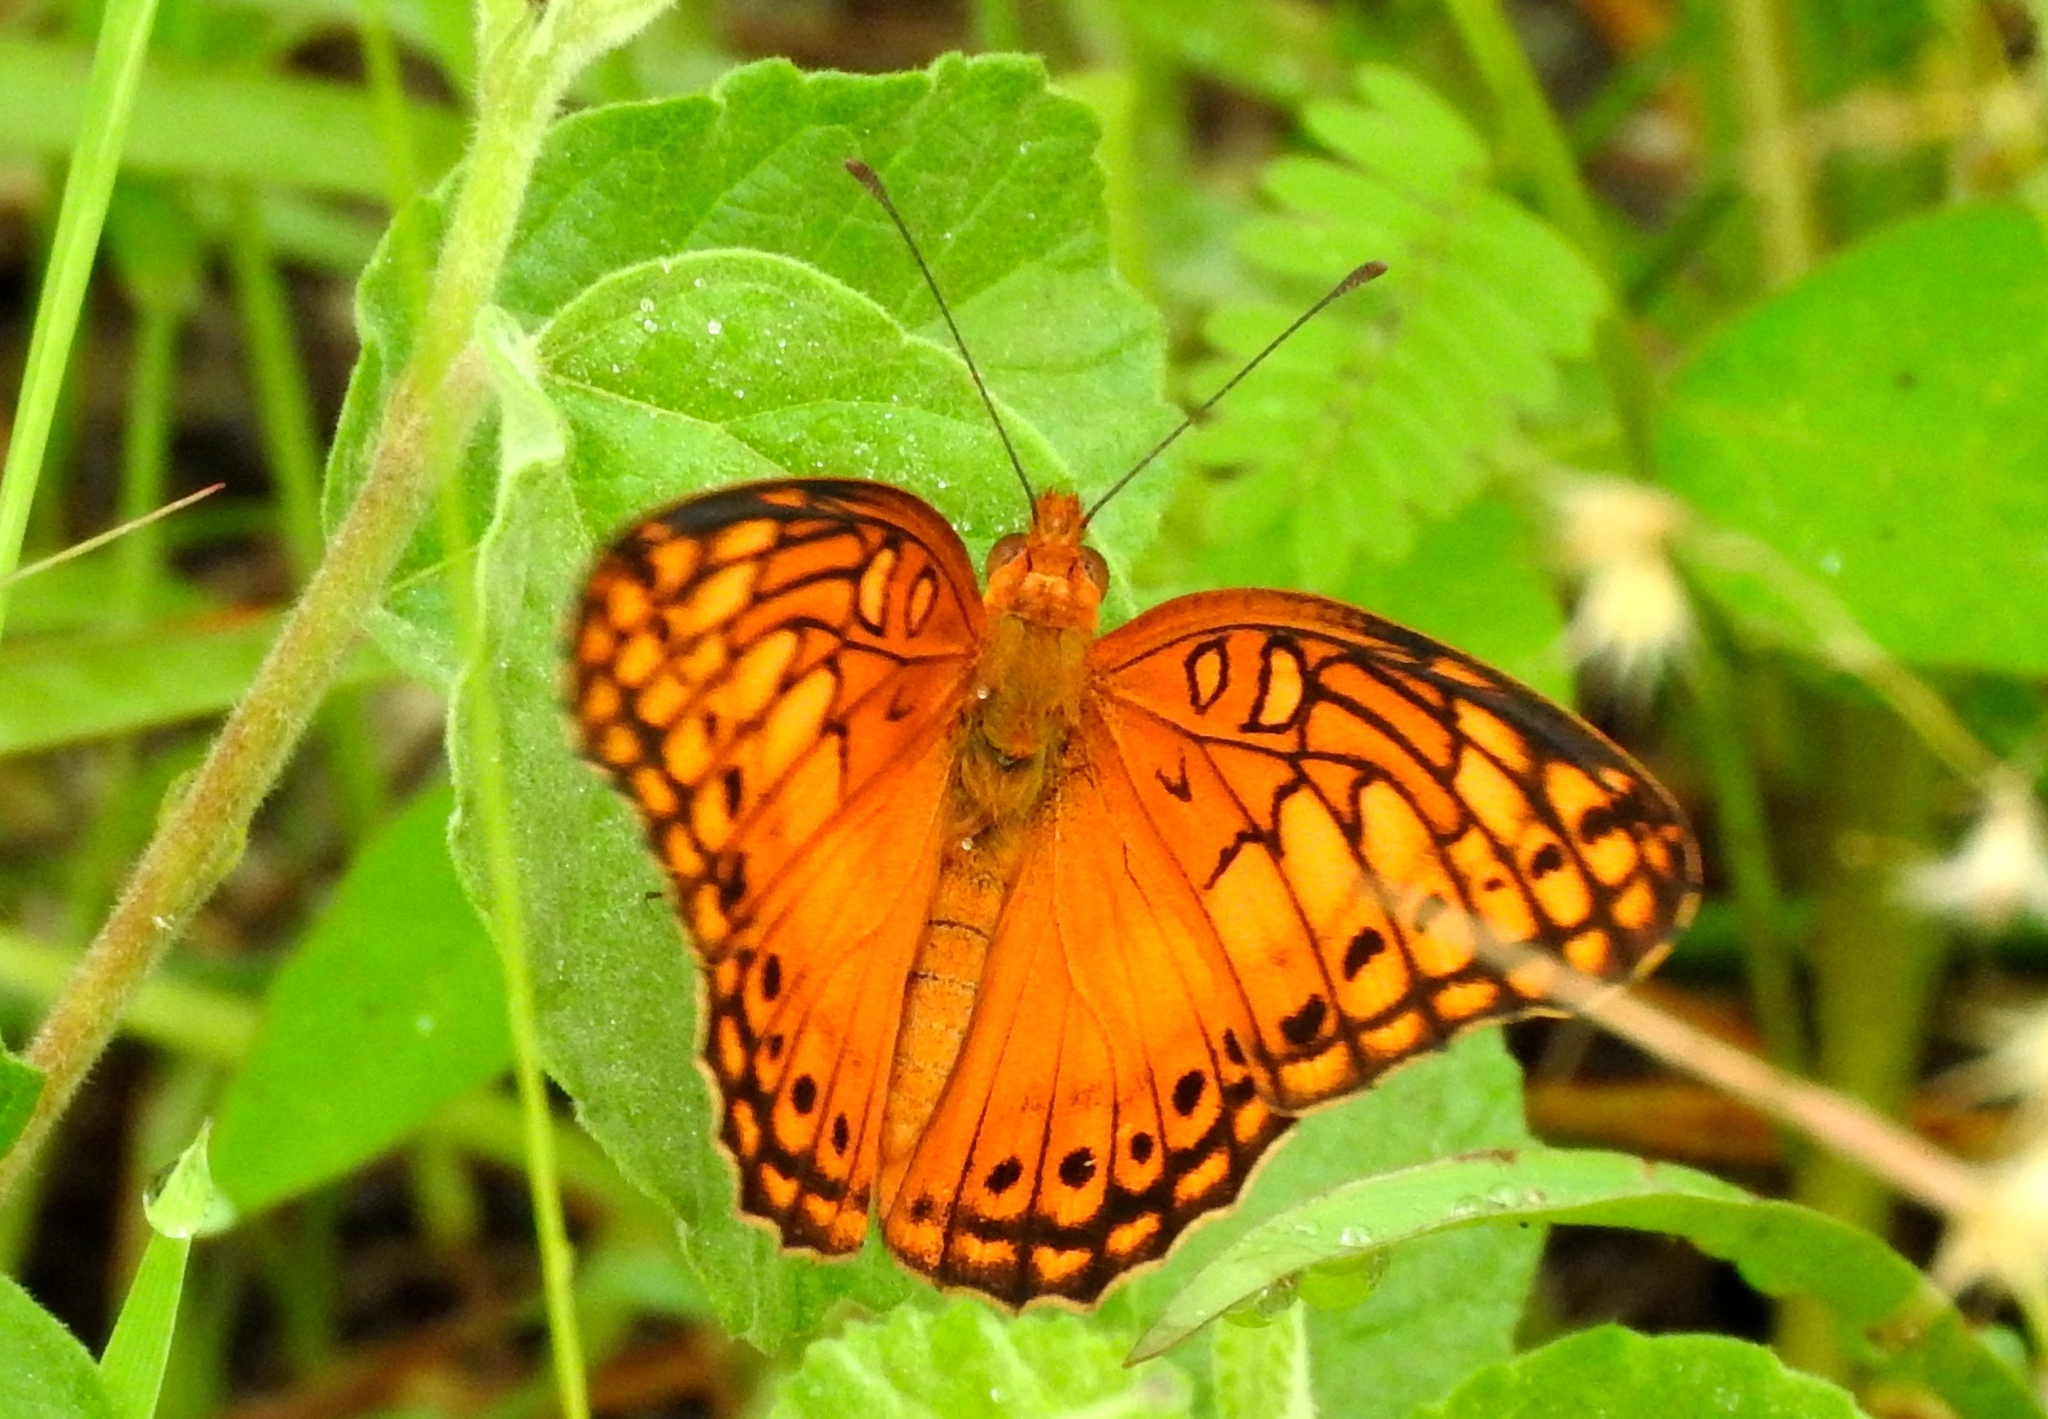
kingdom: Animalia
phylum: Arthropoda
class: Insecta
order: Lepidoptera
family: Nymphalidae
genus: Euptoieta
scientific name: Euptoieta hegesia
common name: Mexican fritillary
